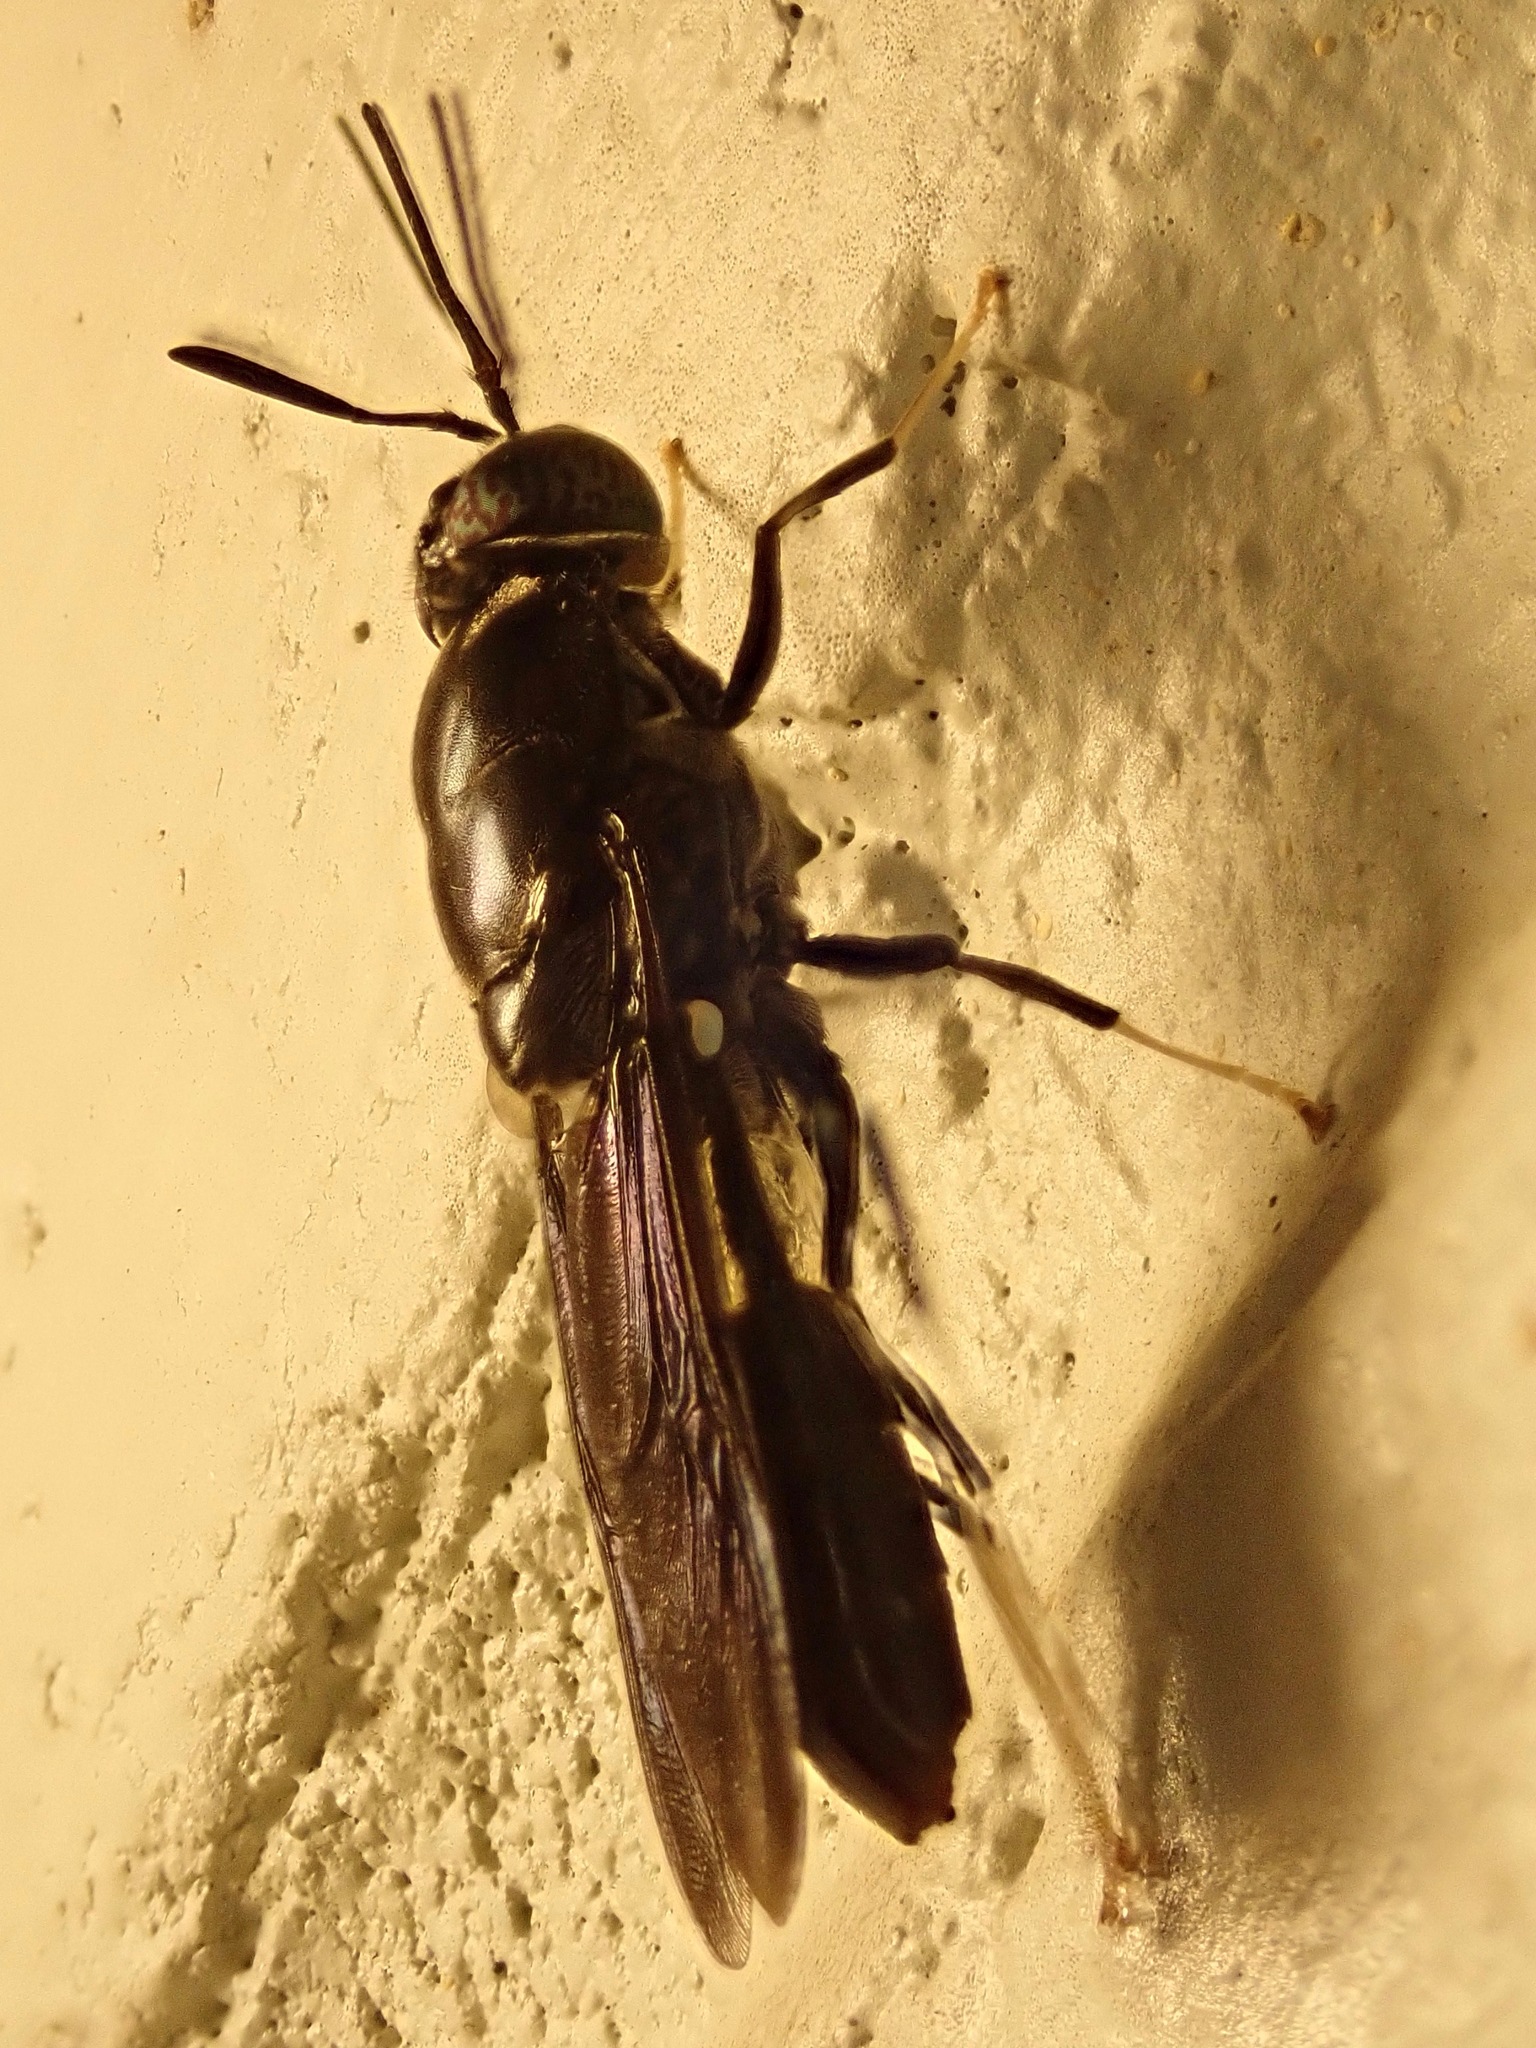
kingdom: Animalia
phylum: Arthropoda
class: Insecta
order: Diptera
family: Stratiomyidae
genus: Hermetia
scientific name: Hermetia illucens
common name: Black soldier fly
